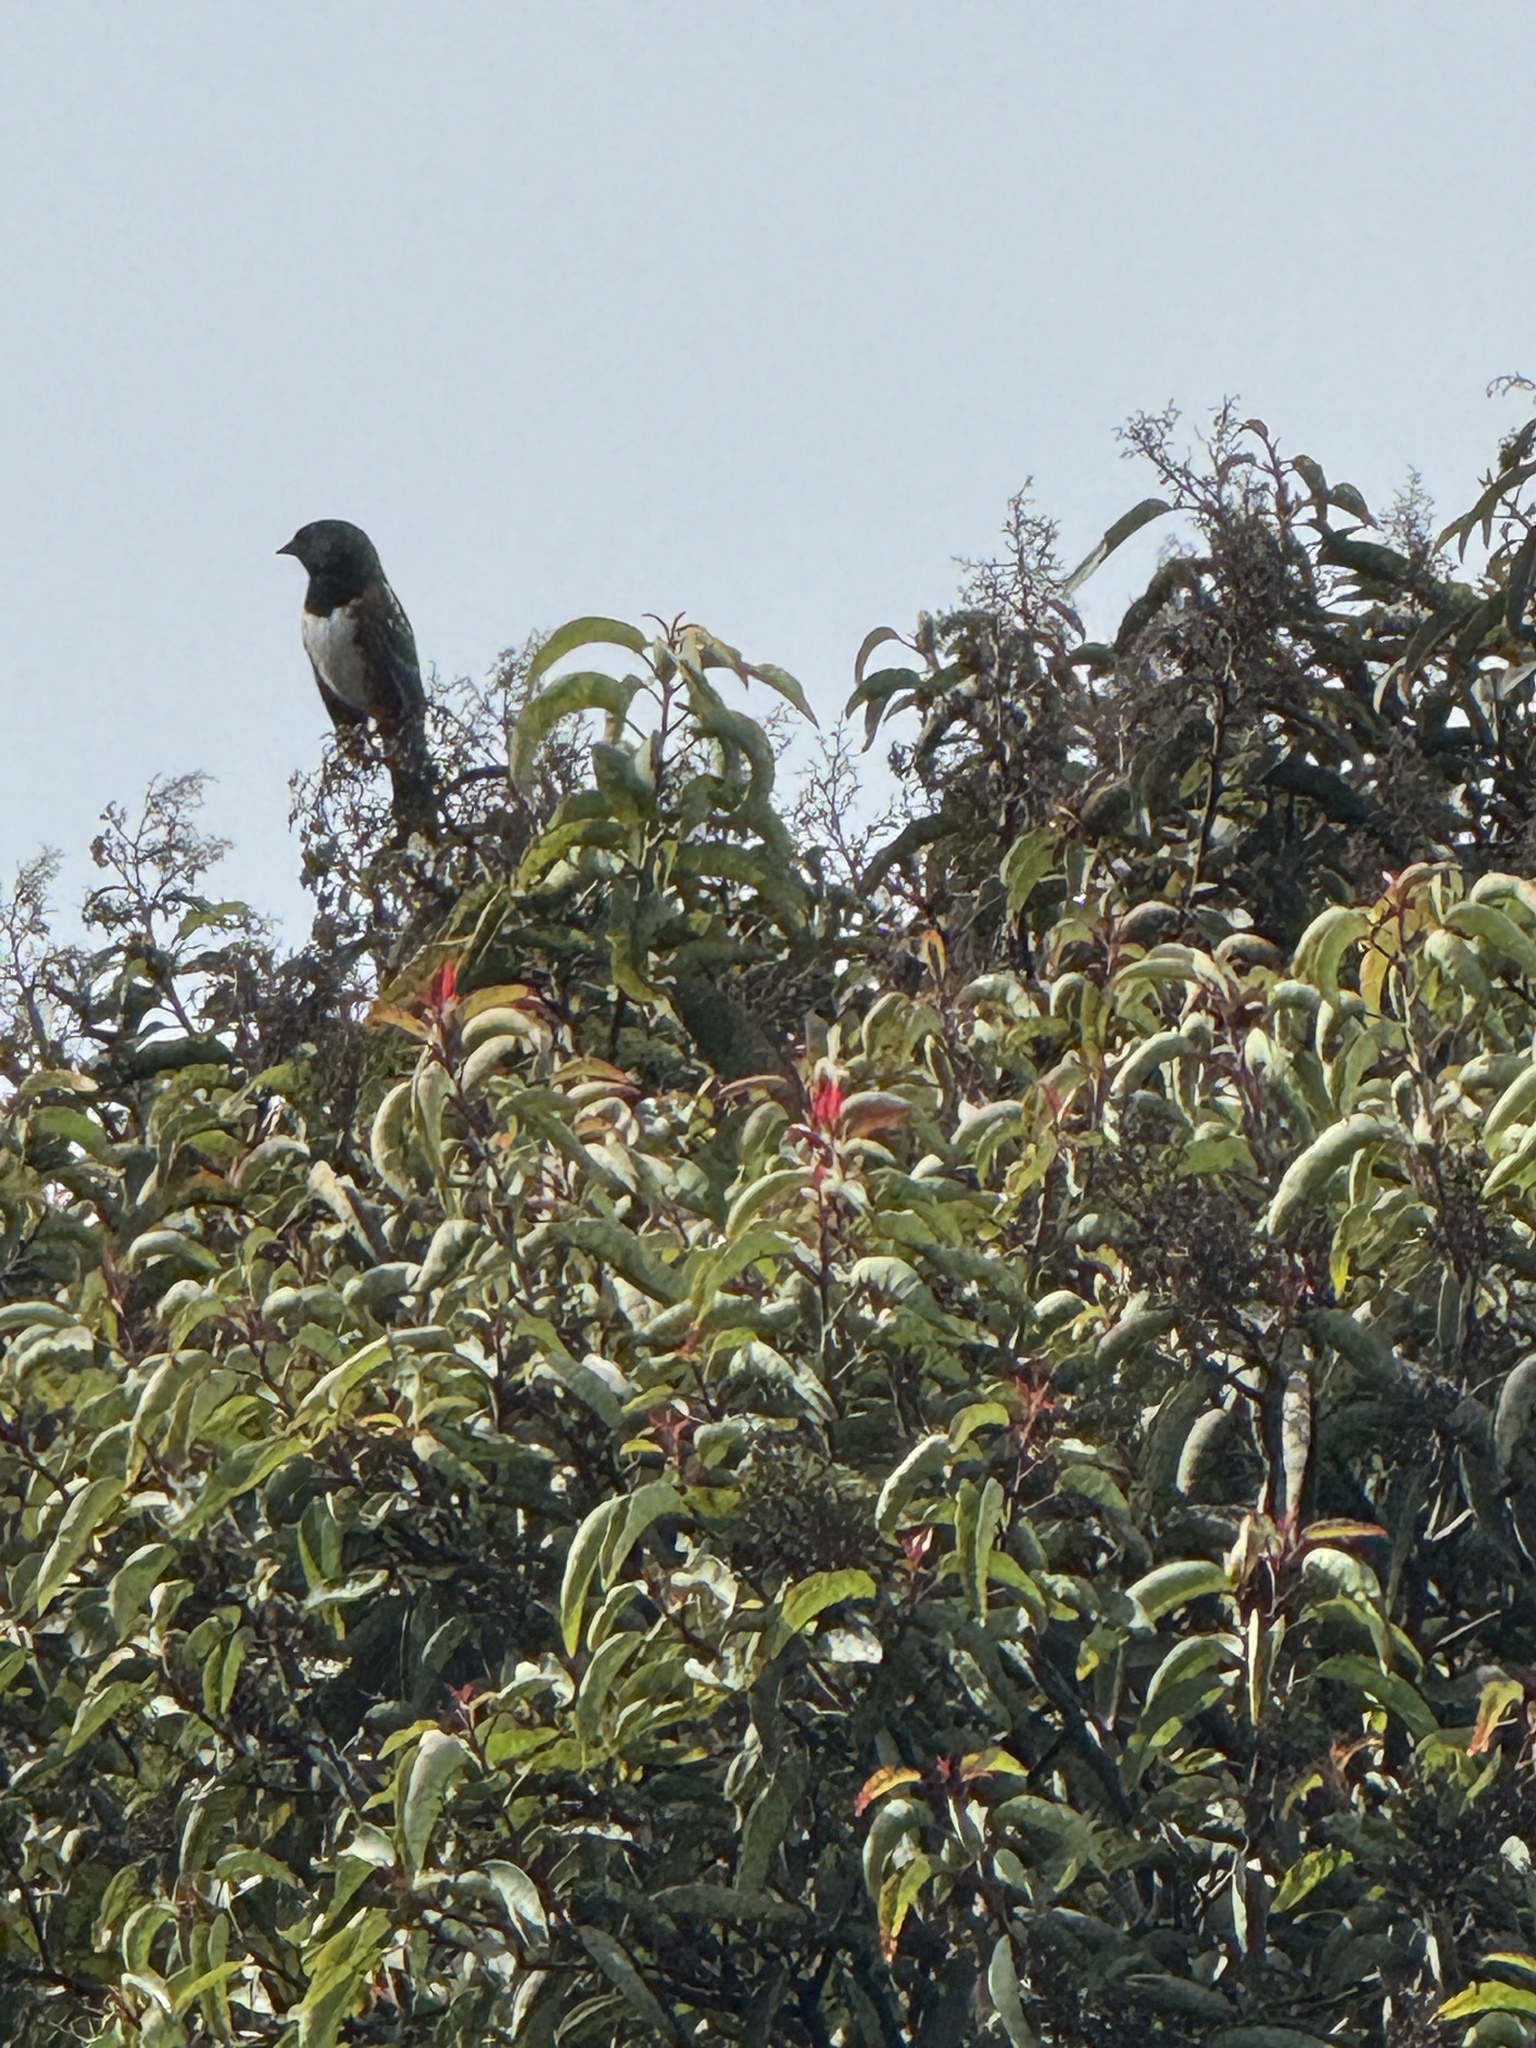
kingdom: Animalia
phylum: Chordata
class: Aves
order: Passeriformes
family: Passerellidae
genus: Pipilo
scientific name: Pipilo maculatus
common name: Spotted towhee
